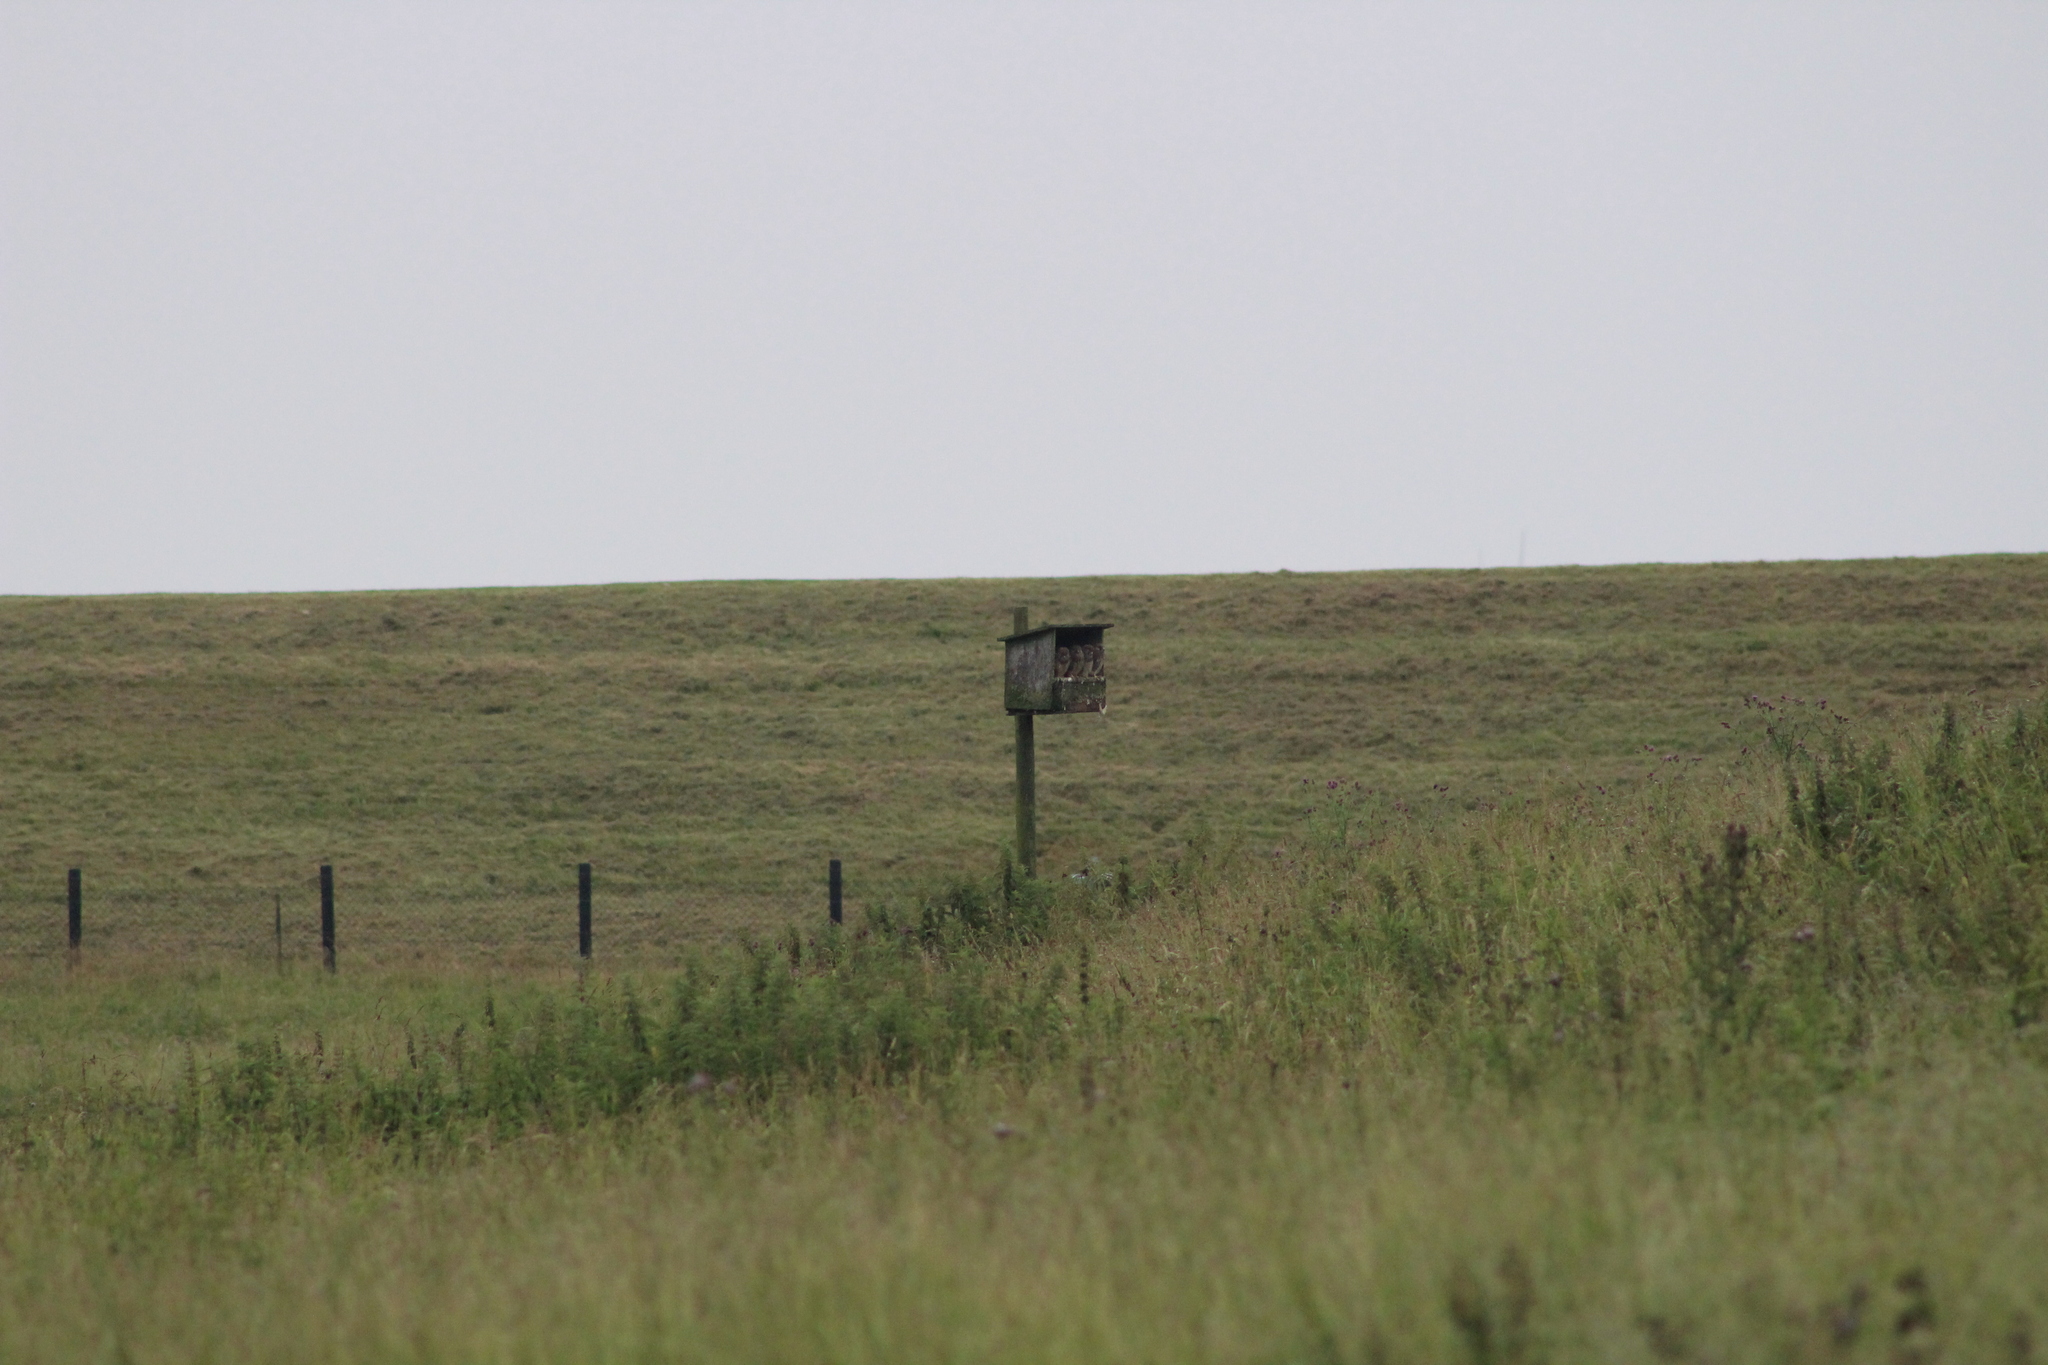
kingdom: Animalia
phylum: Chordata
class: Aves
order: Falconiformes
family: Falconidae
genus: Falco
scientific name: Falco tinnunculus
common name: Common kestrel
